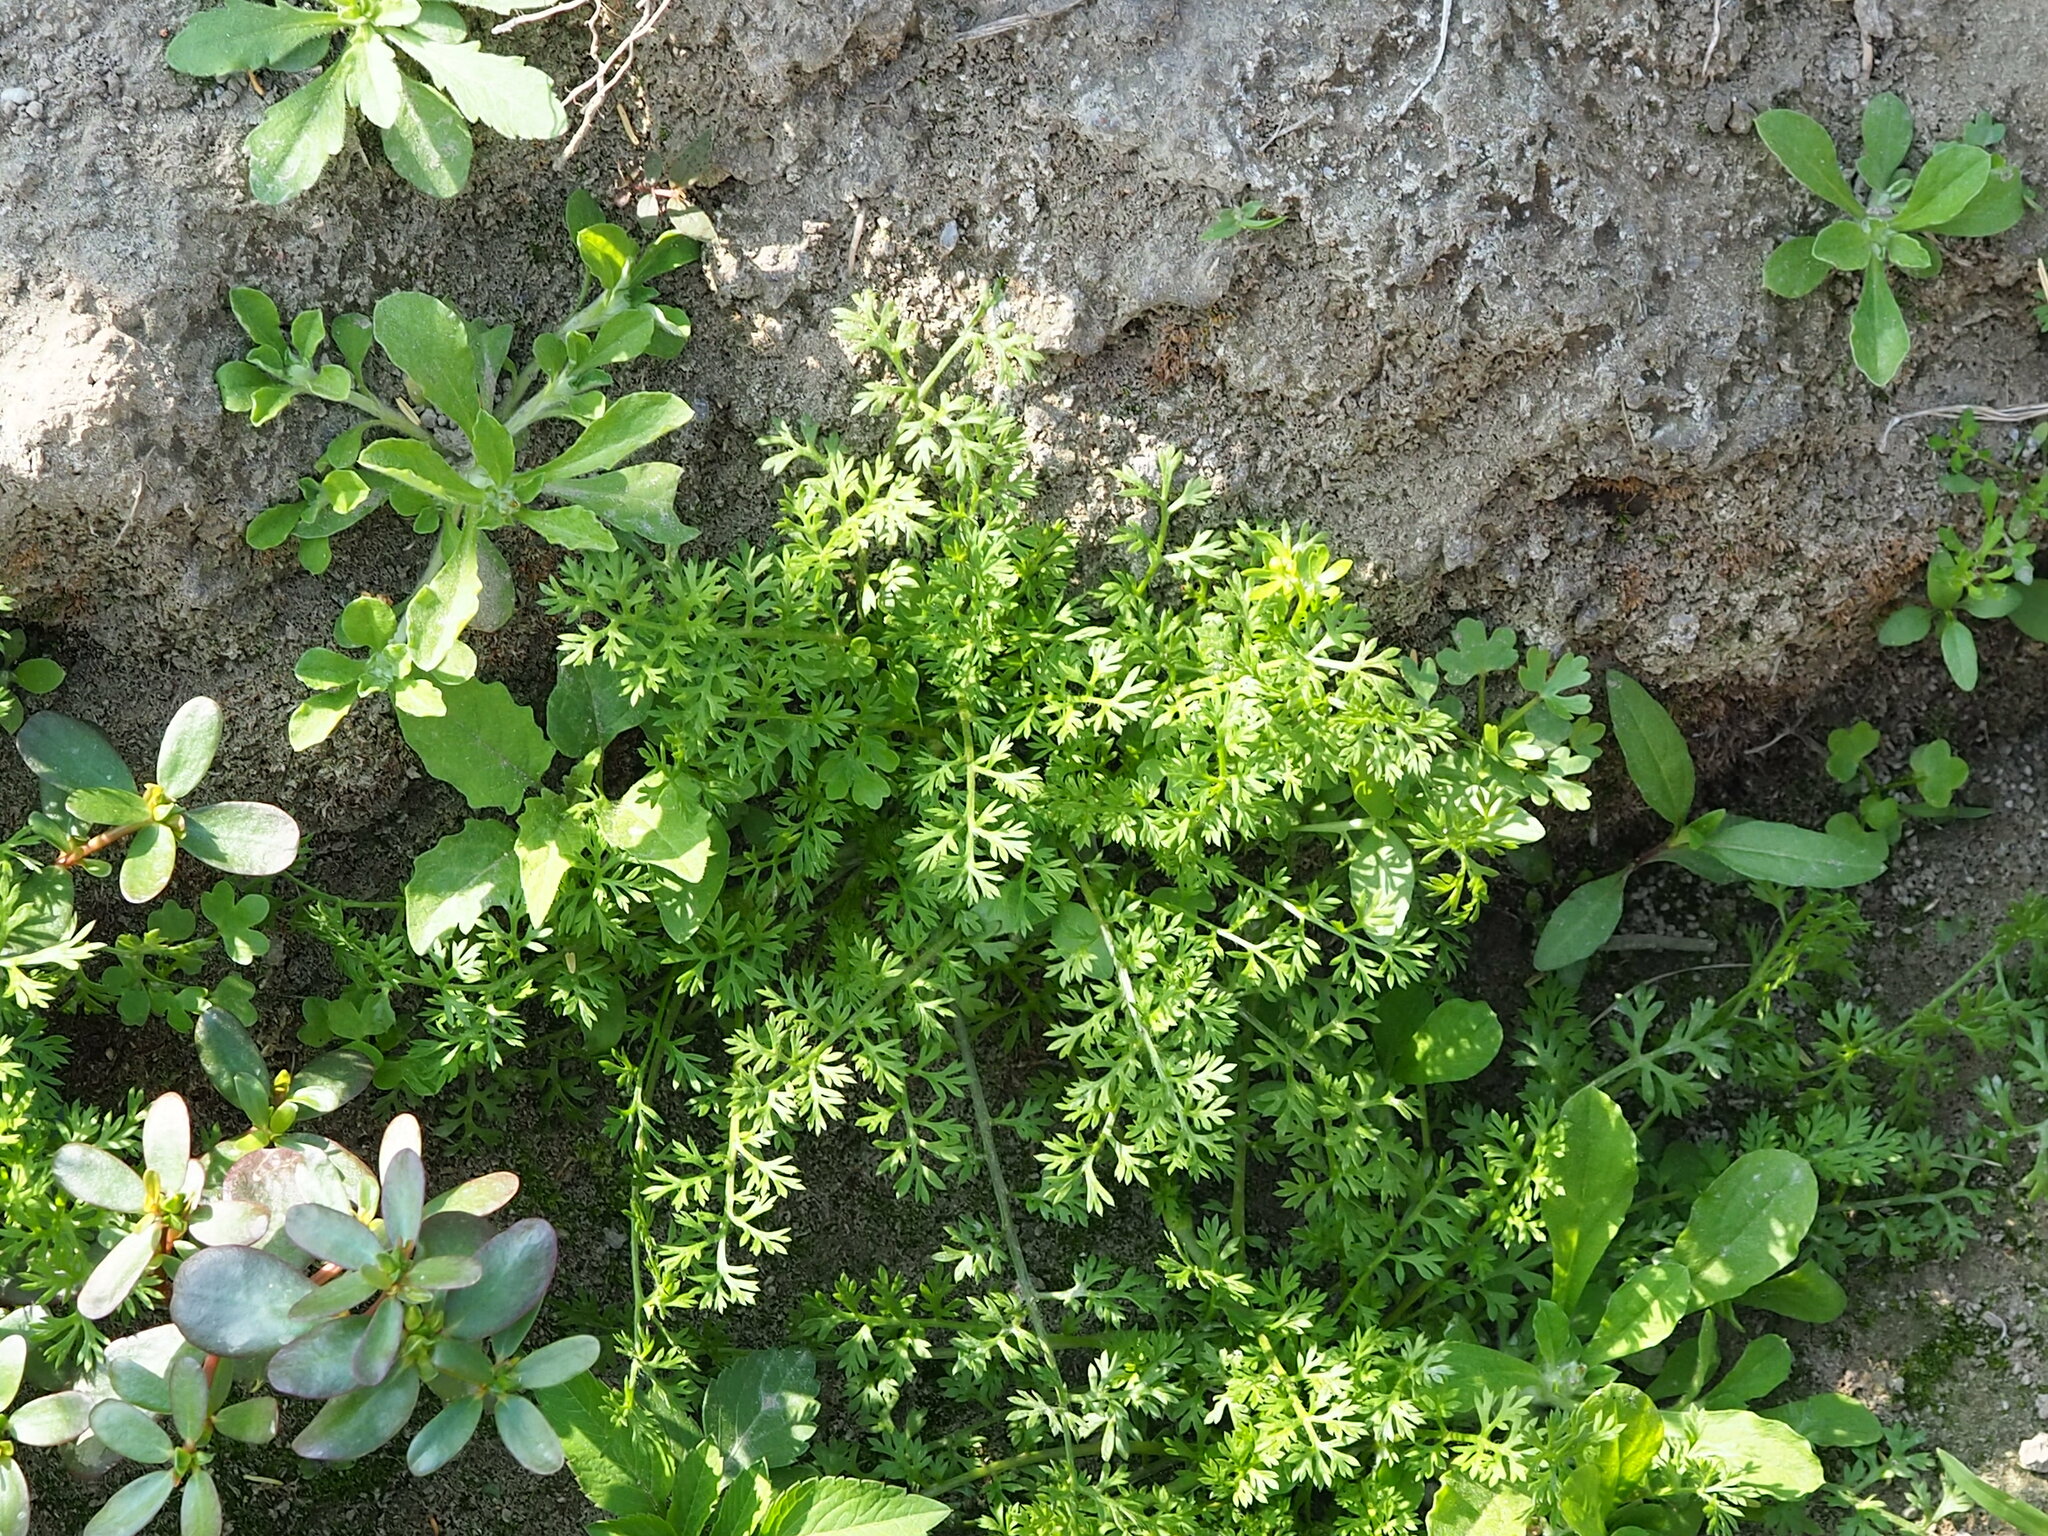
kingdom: Plantae
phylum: Tracheophyta
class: Magnoliopsida
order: Asterales
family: Asteraceae
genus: Soliva
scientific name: Soliva anthemifolia
